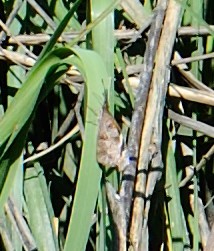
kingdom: Animalia
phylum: Arthropoda
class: Insecta
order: Lepidoptera
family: Nymphalidae
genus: Libytheana
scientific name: Libytheana carinenta
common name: American snout
